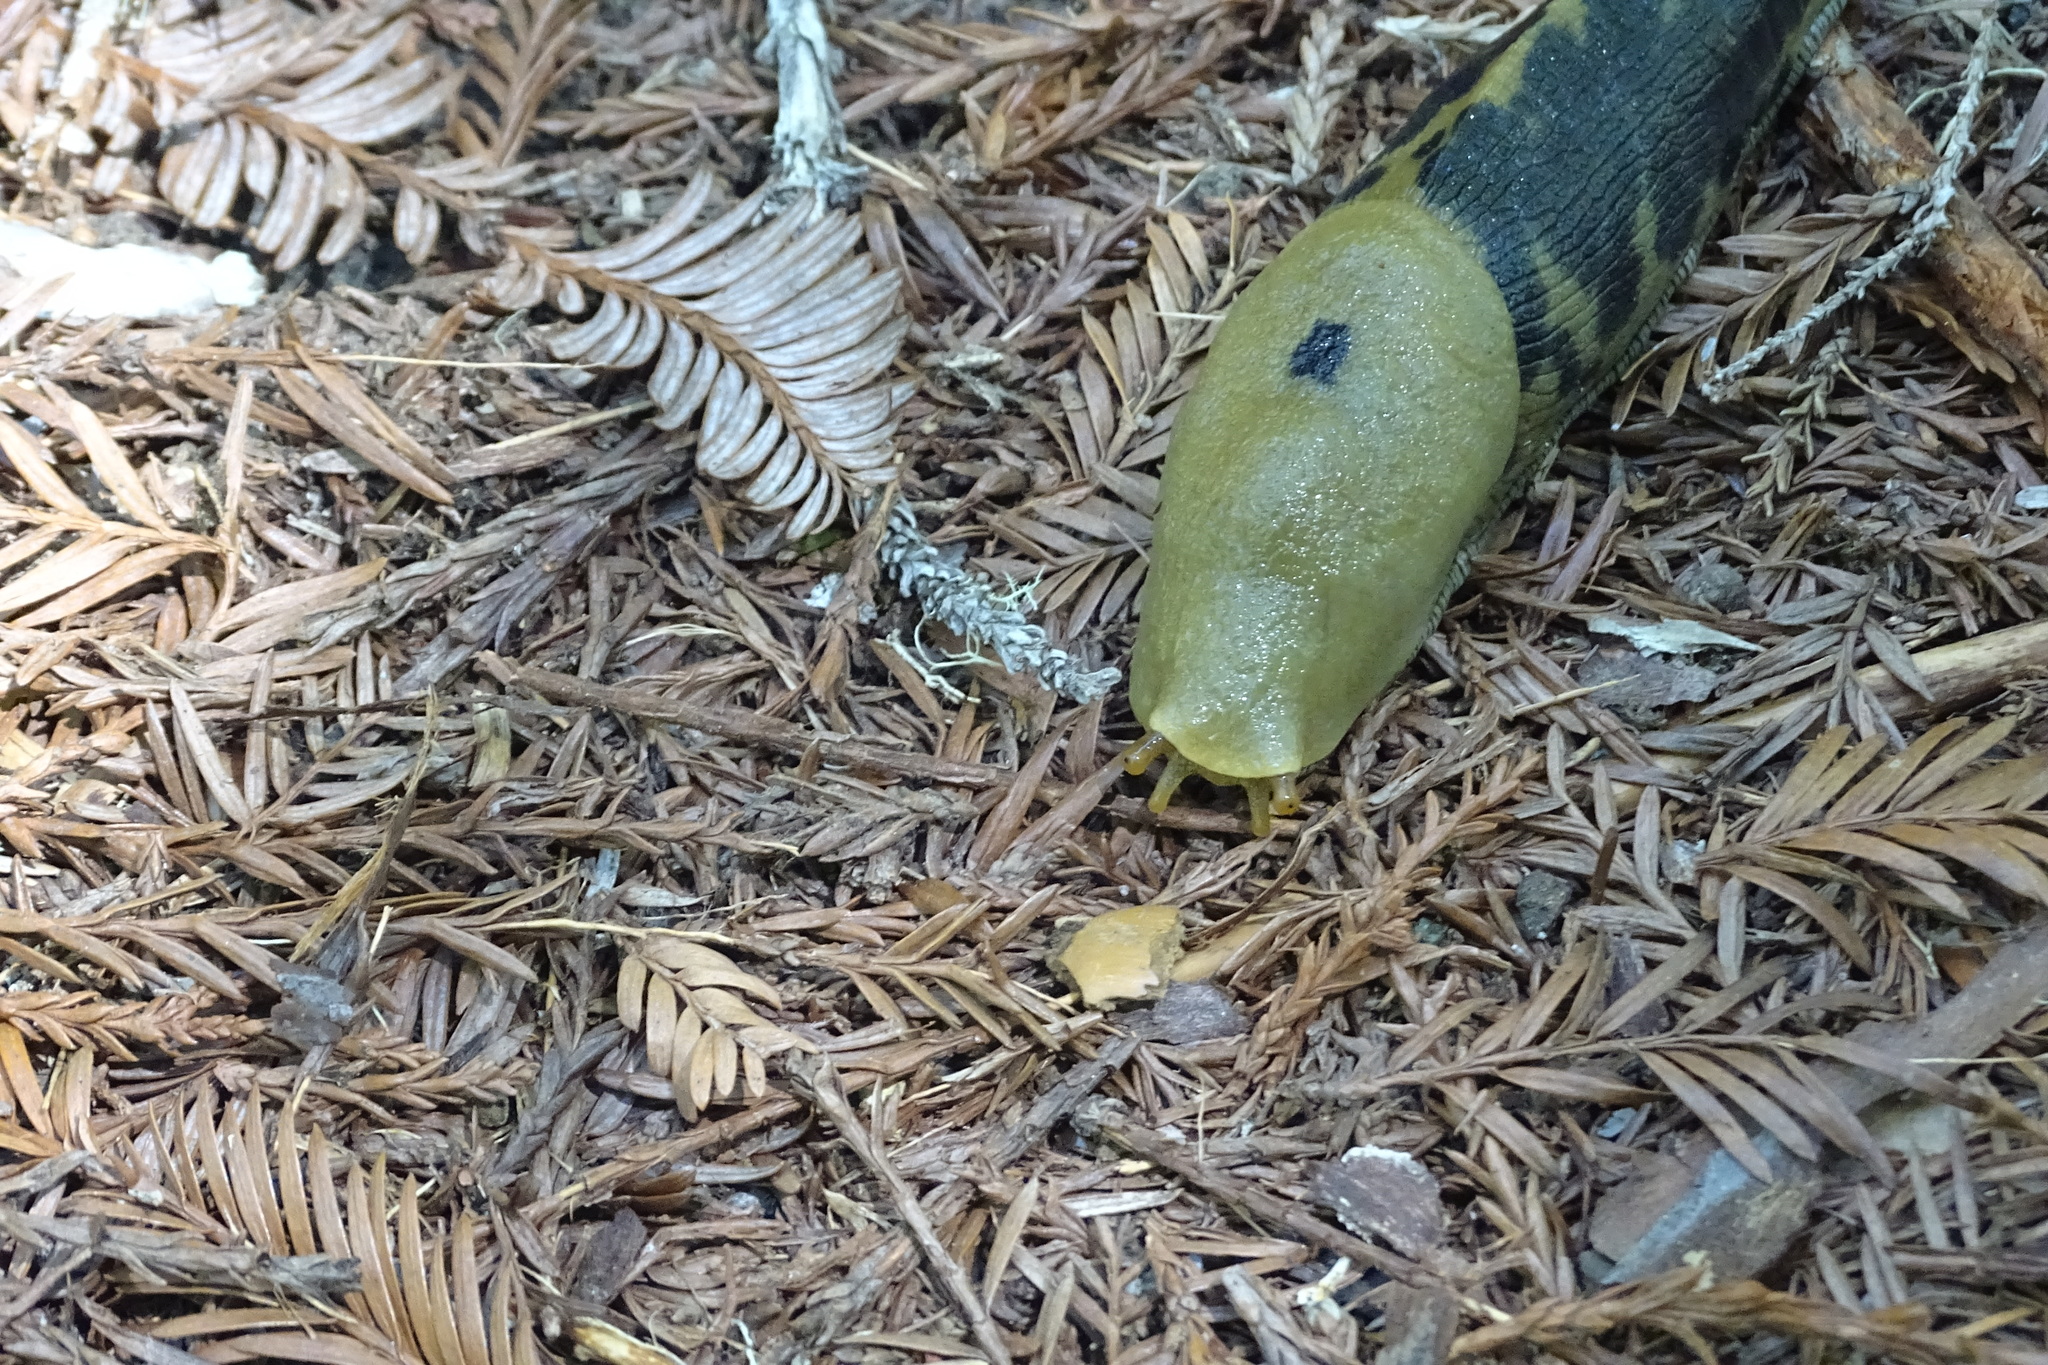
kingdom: Animalia
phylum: Mollusca
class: Gastropoda
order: Stylommatophora
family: Ariolimacidae
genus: Ariolimax
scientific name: Ariolimax buttoni
